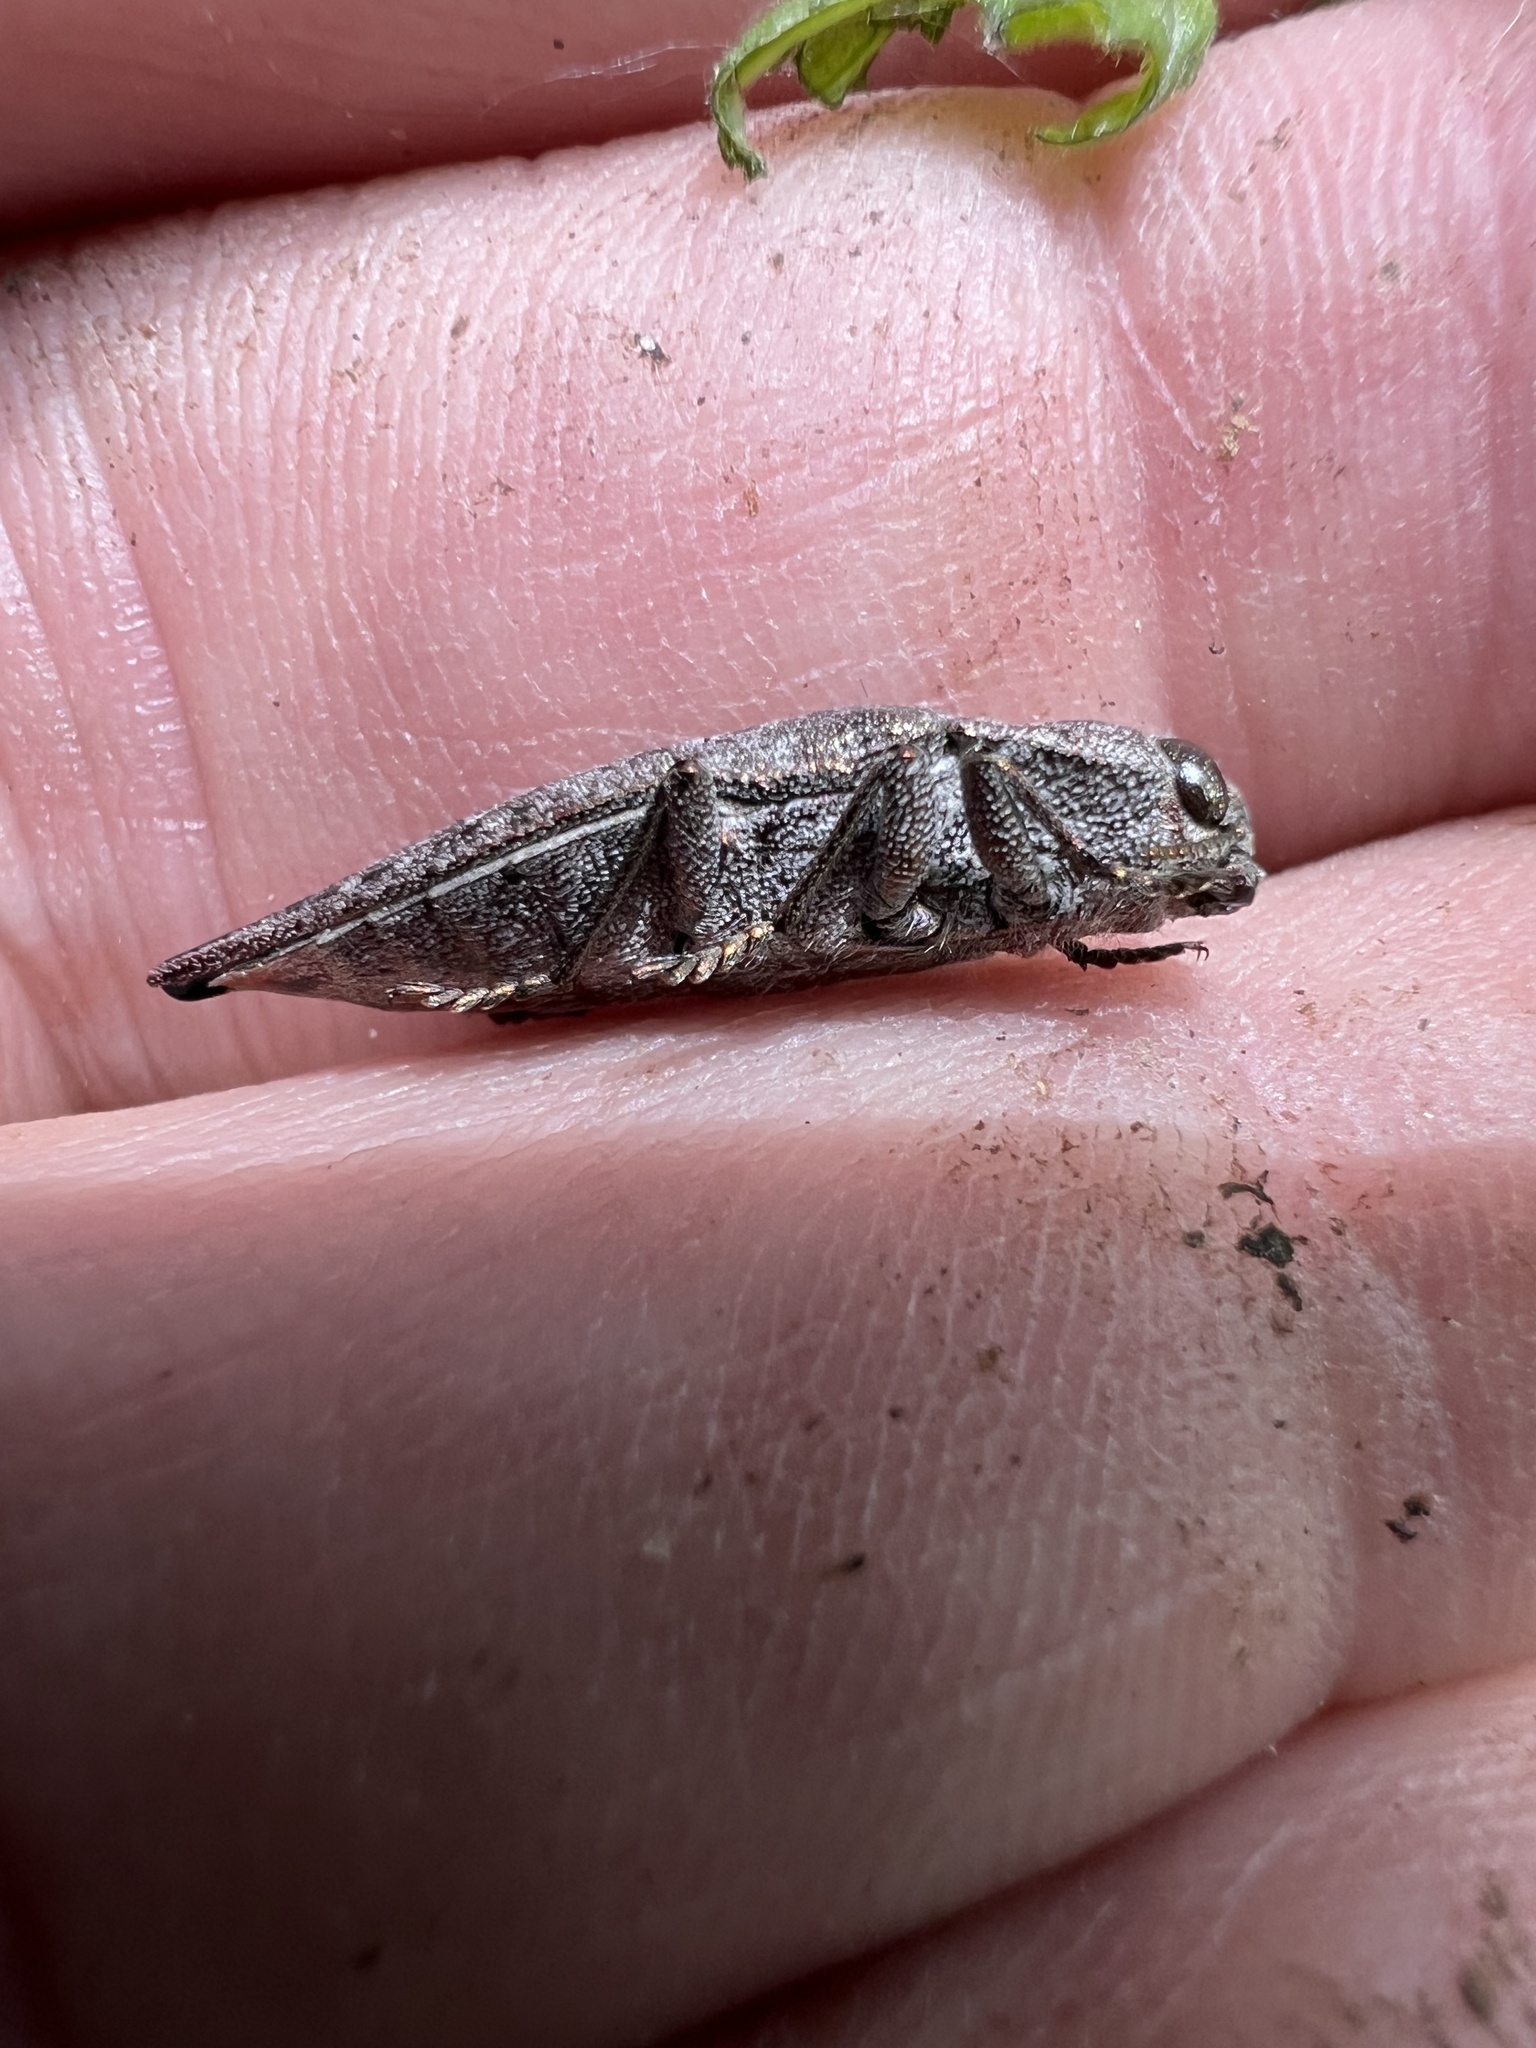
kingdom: Animalia
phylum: Arthropoda
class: Insecta
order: Coleoptera
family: Buprestidae
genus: Dicerca
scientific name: Dicerca tenebrica
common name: Flat-headed poplar borer
